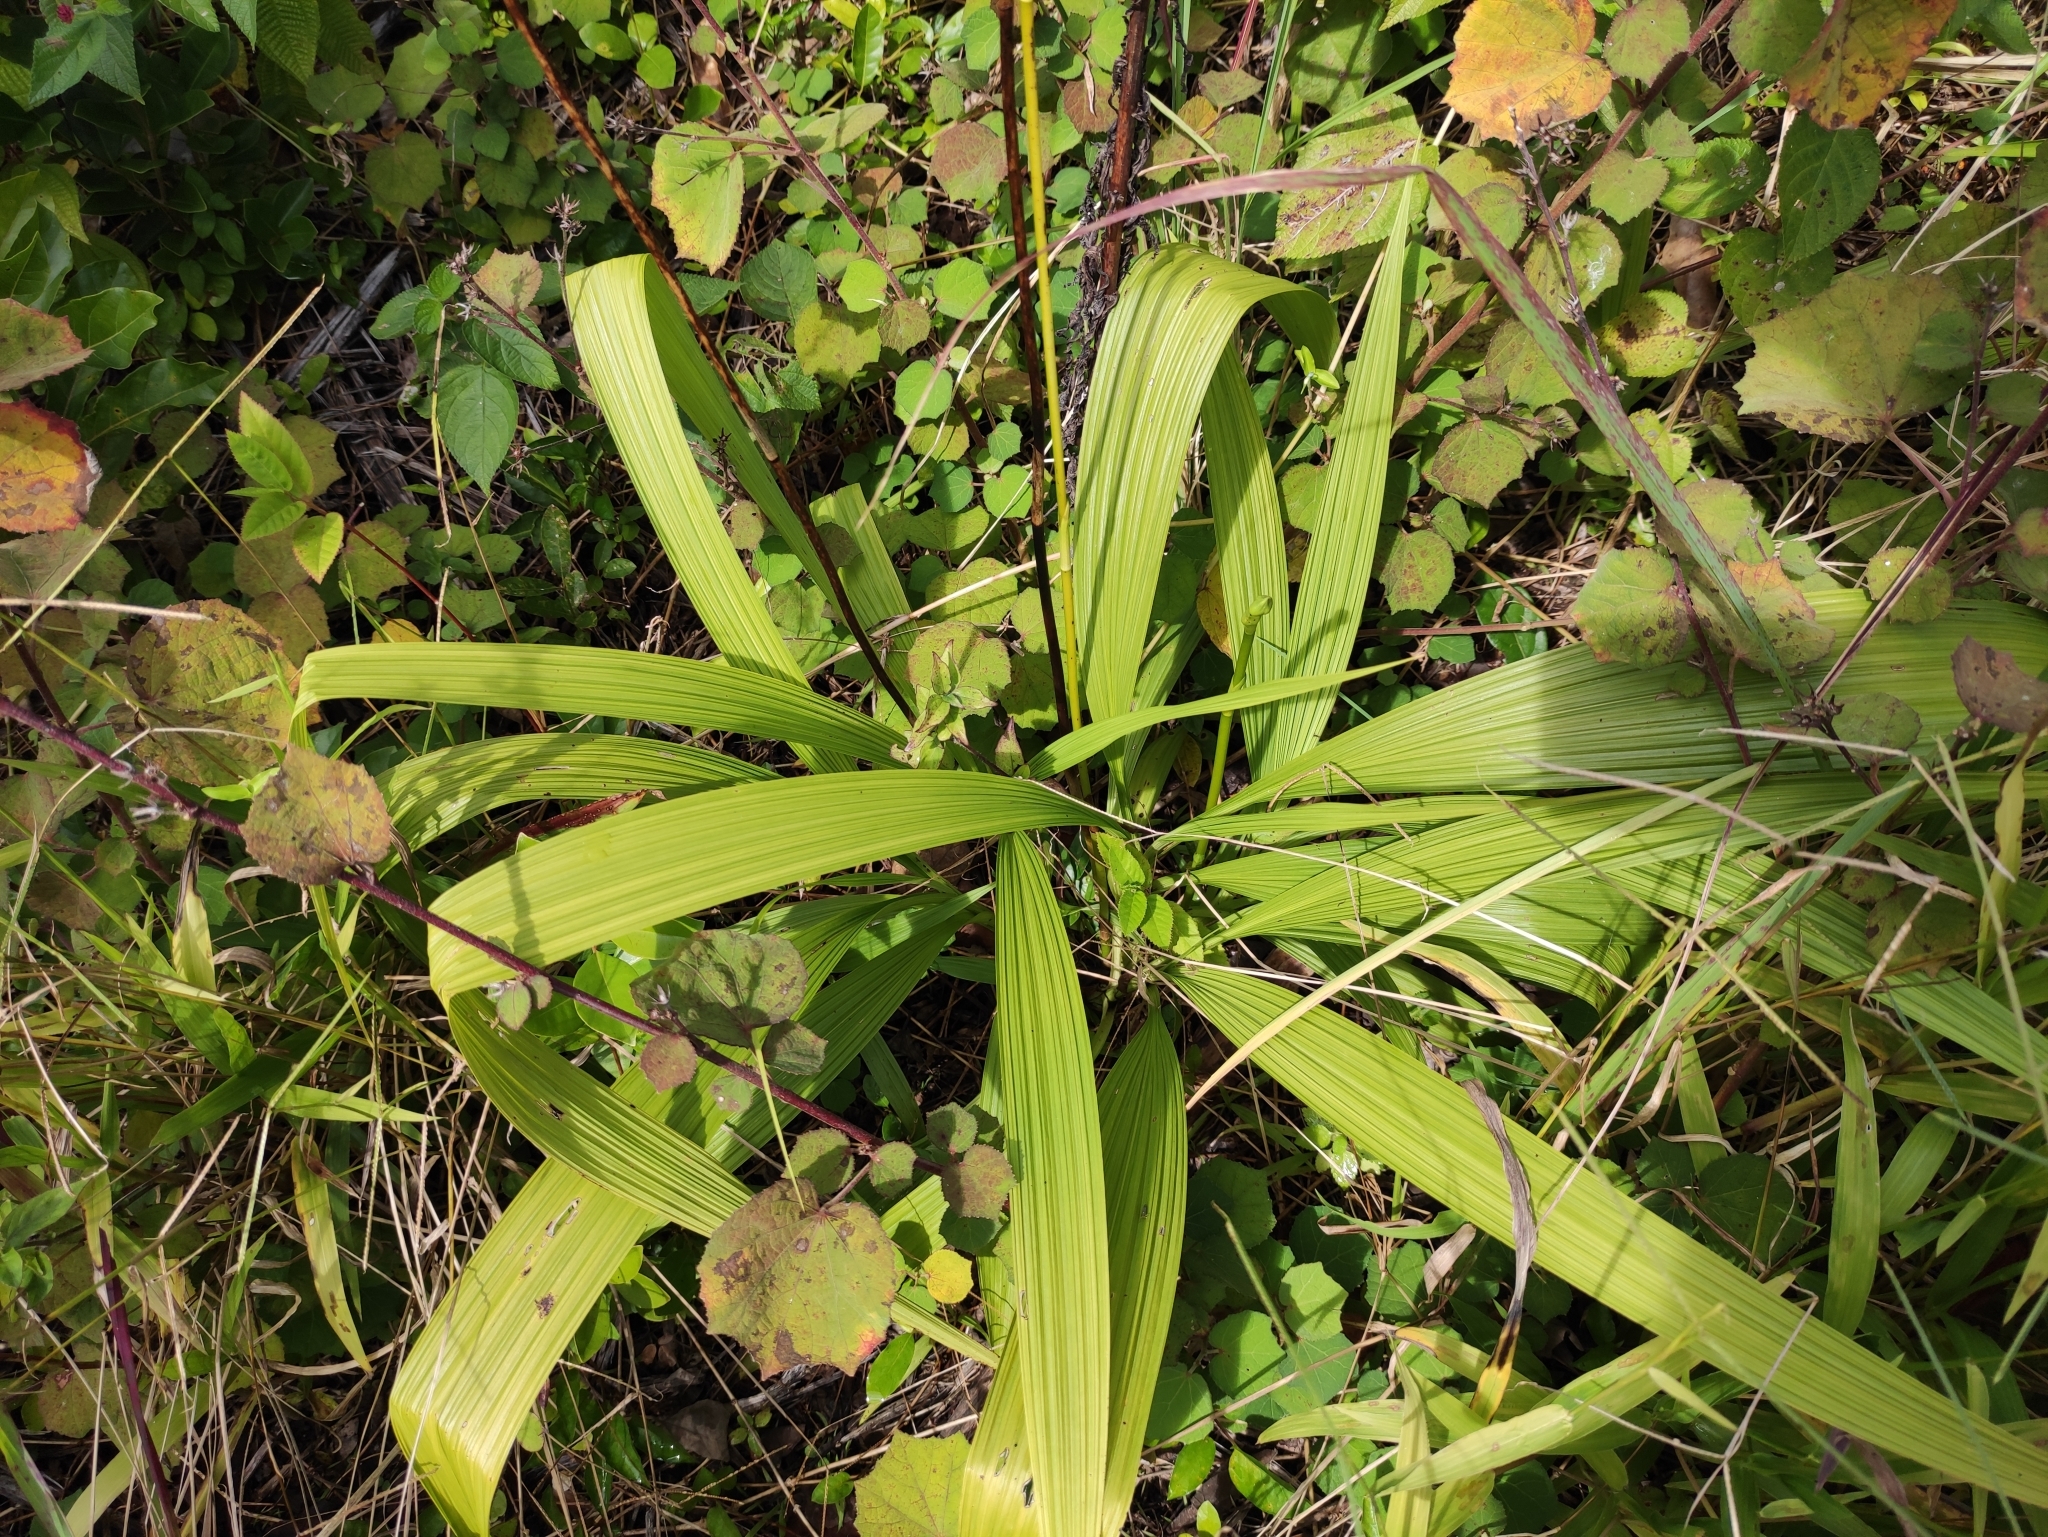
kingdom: Plantae
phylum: Tracheophyta
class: Liliopsida
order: Asparagales
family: Orchidaceae
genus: Spathoglottis
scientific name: Spathoglottis plicata
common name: Philippine ground orchid
